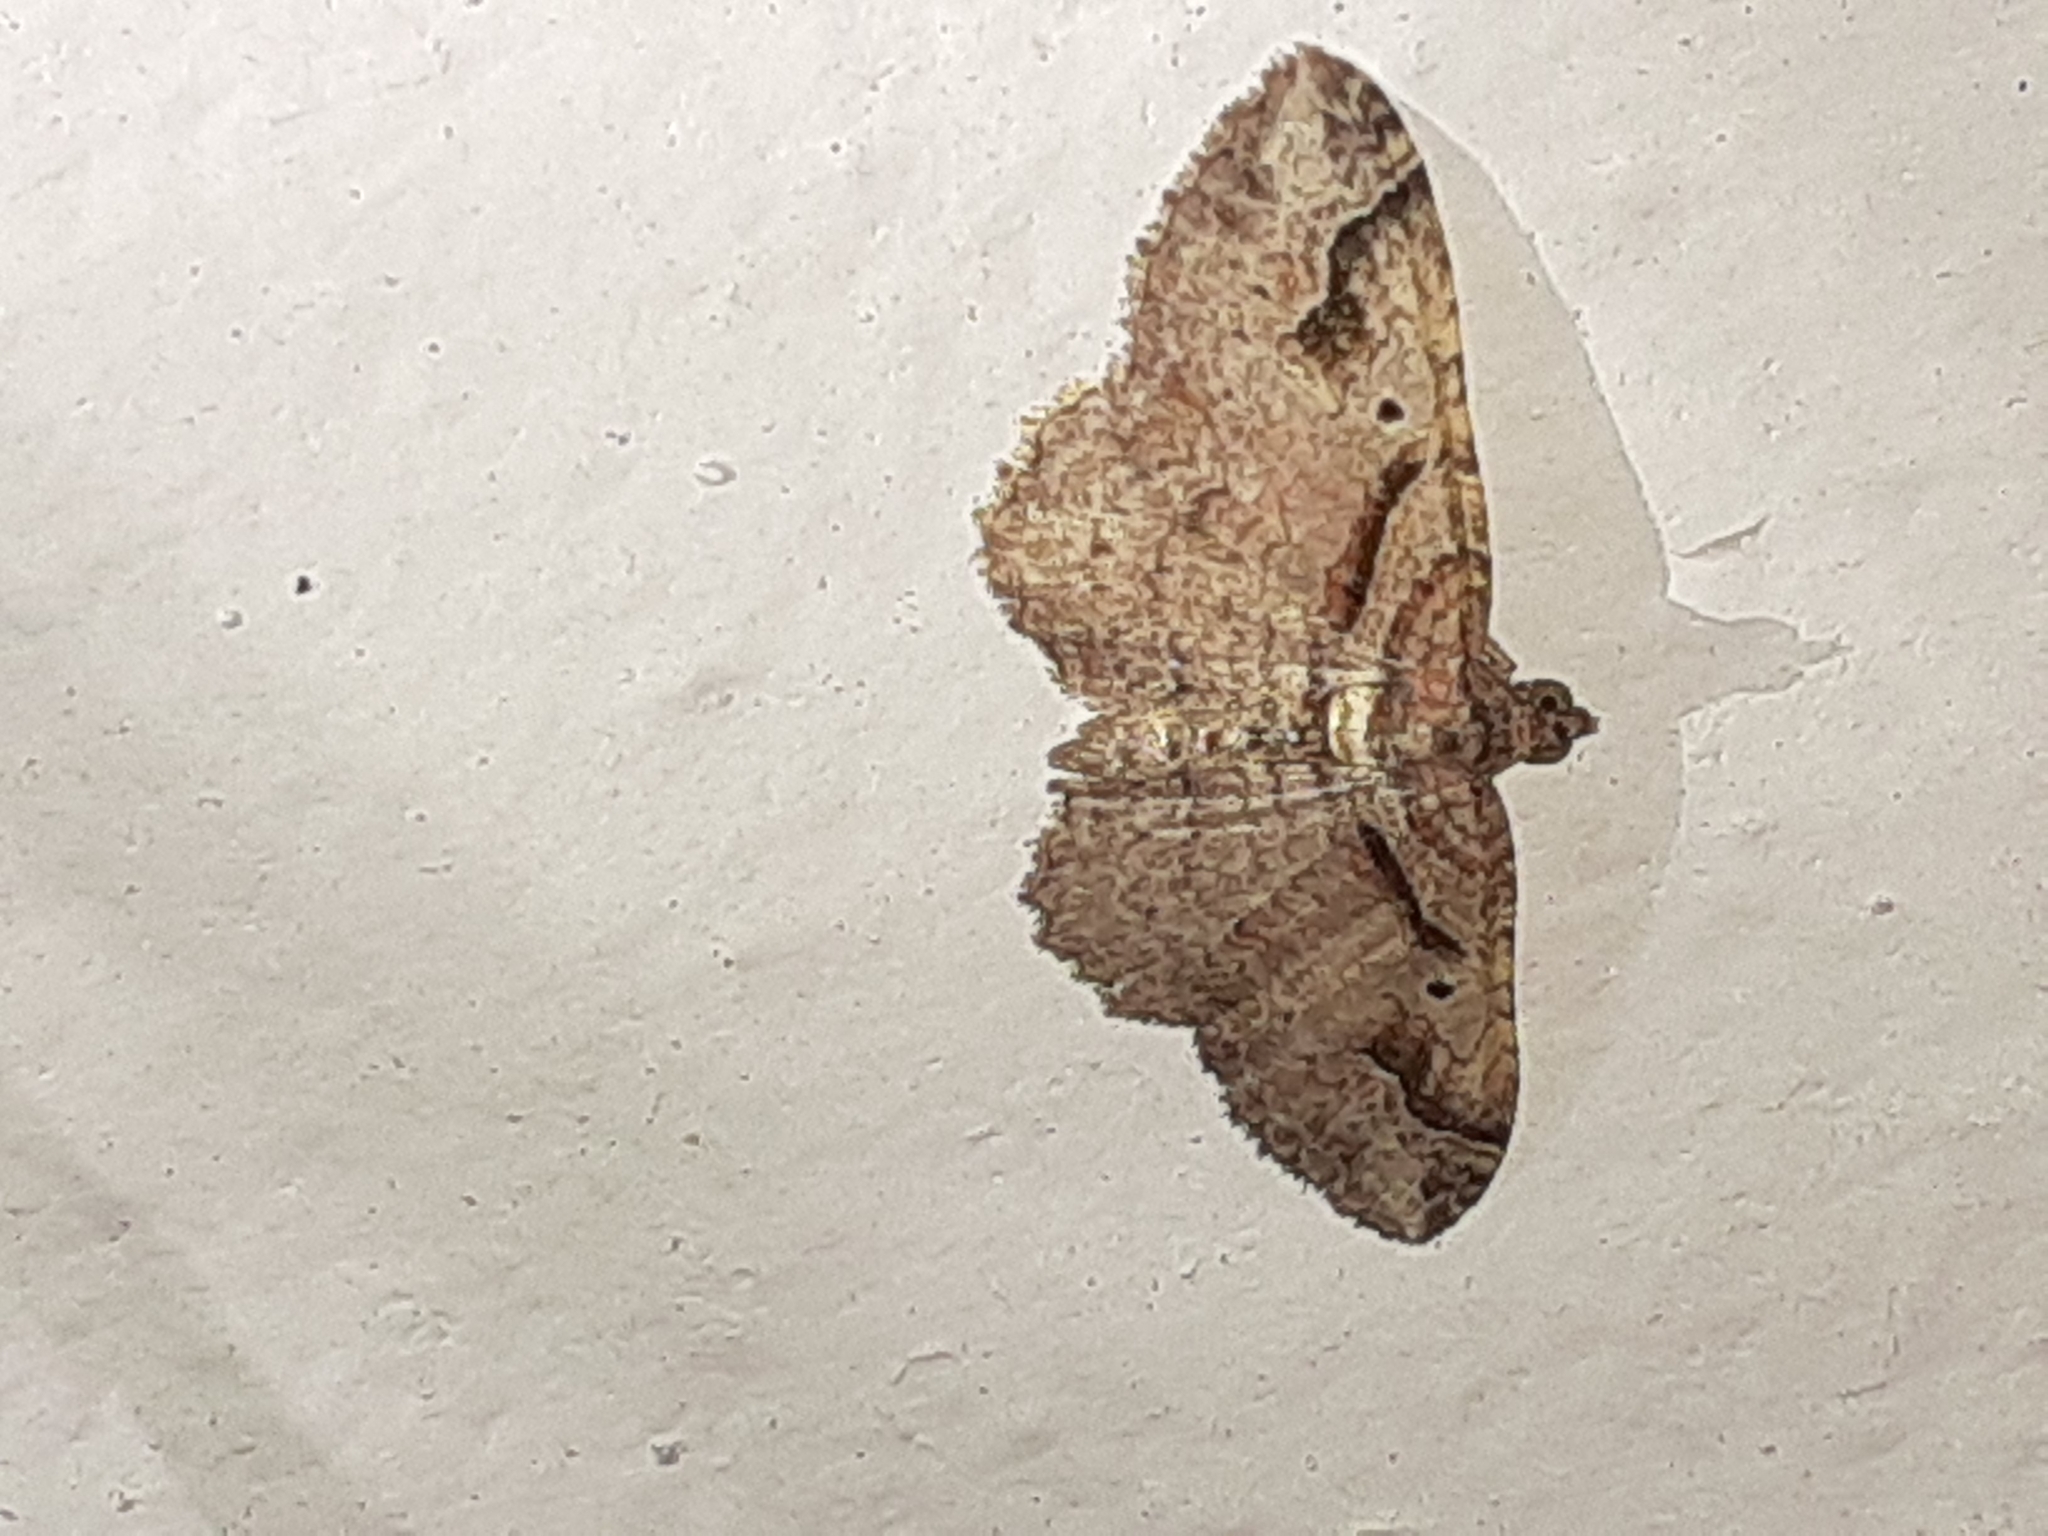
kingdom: Animalia
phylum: Arthropoda
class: Insecta
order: Lepidoptera
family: Geometridae
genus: Costaconvexa
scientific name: Costaconvexa centrostrigaria
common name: Bent-line carpet
